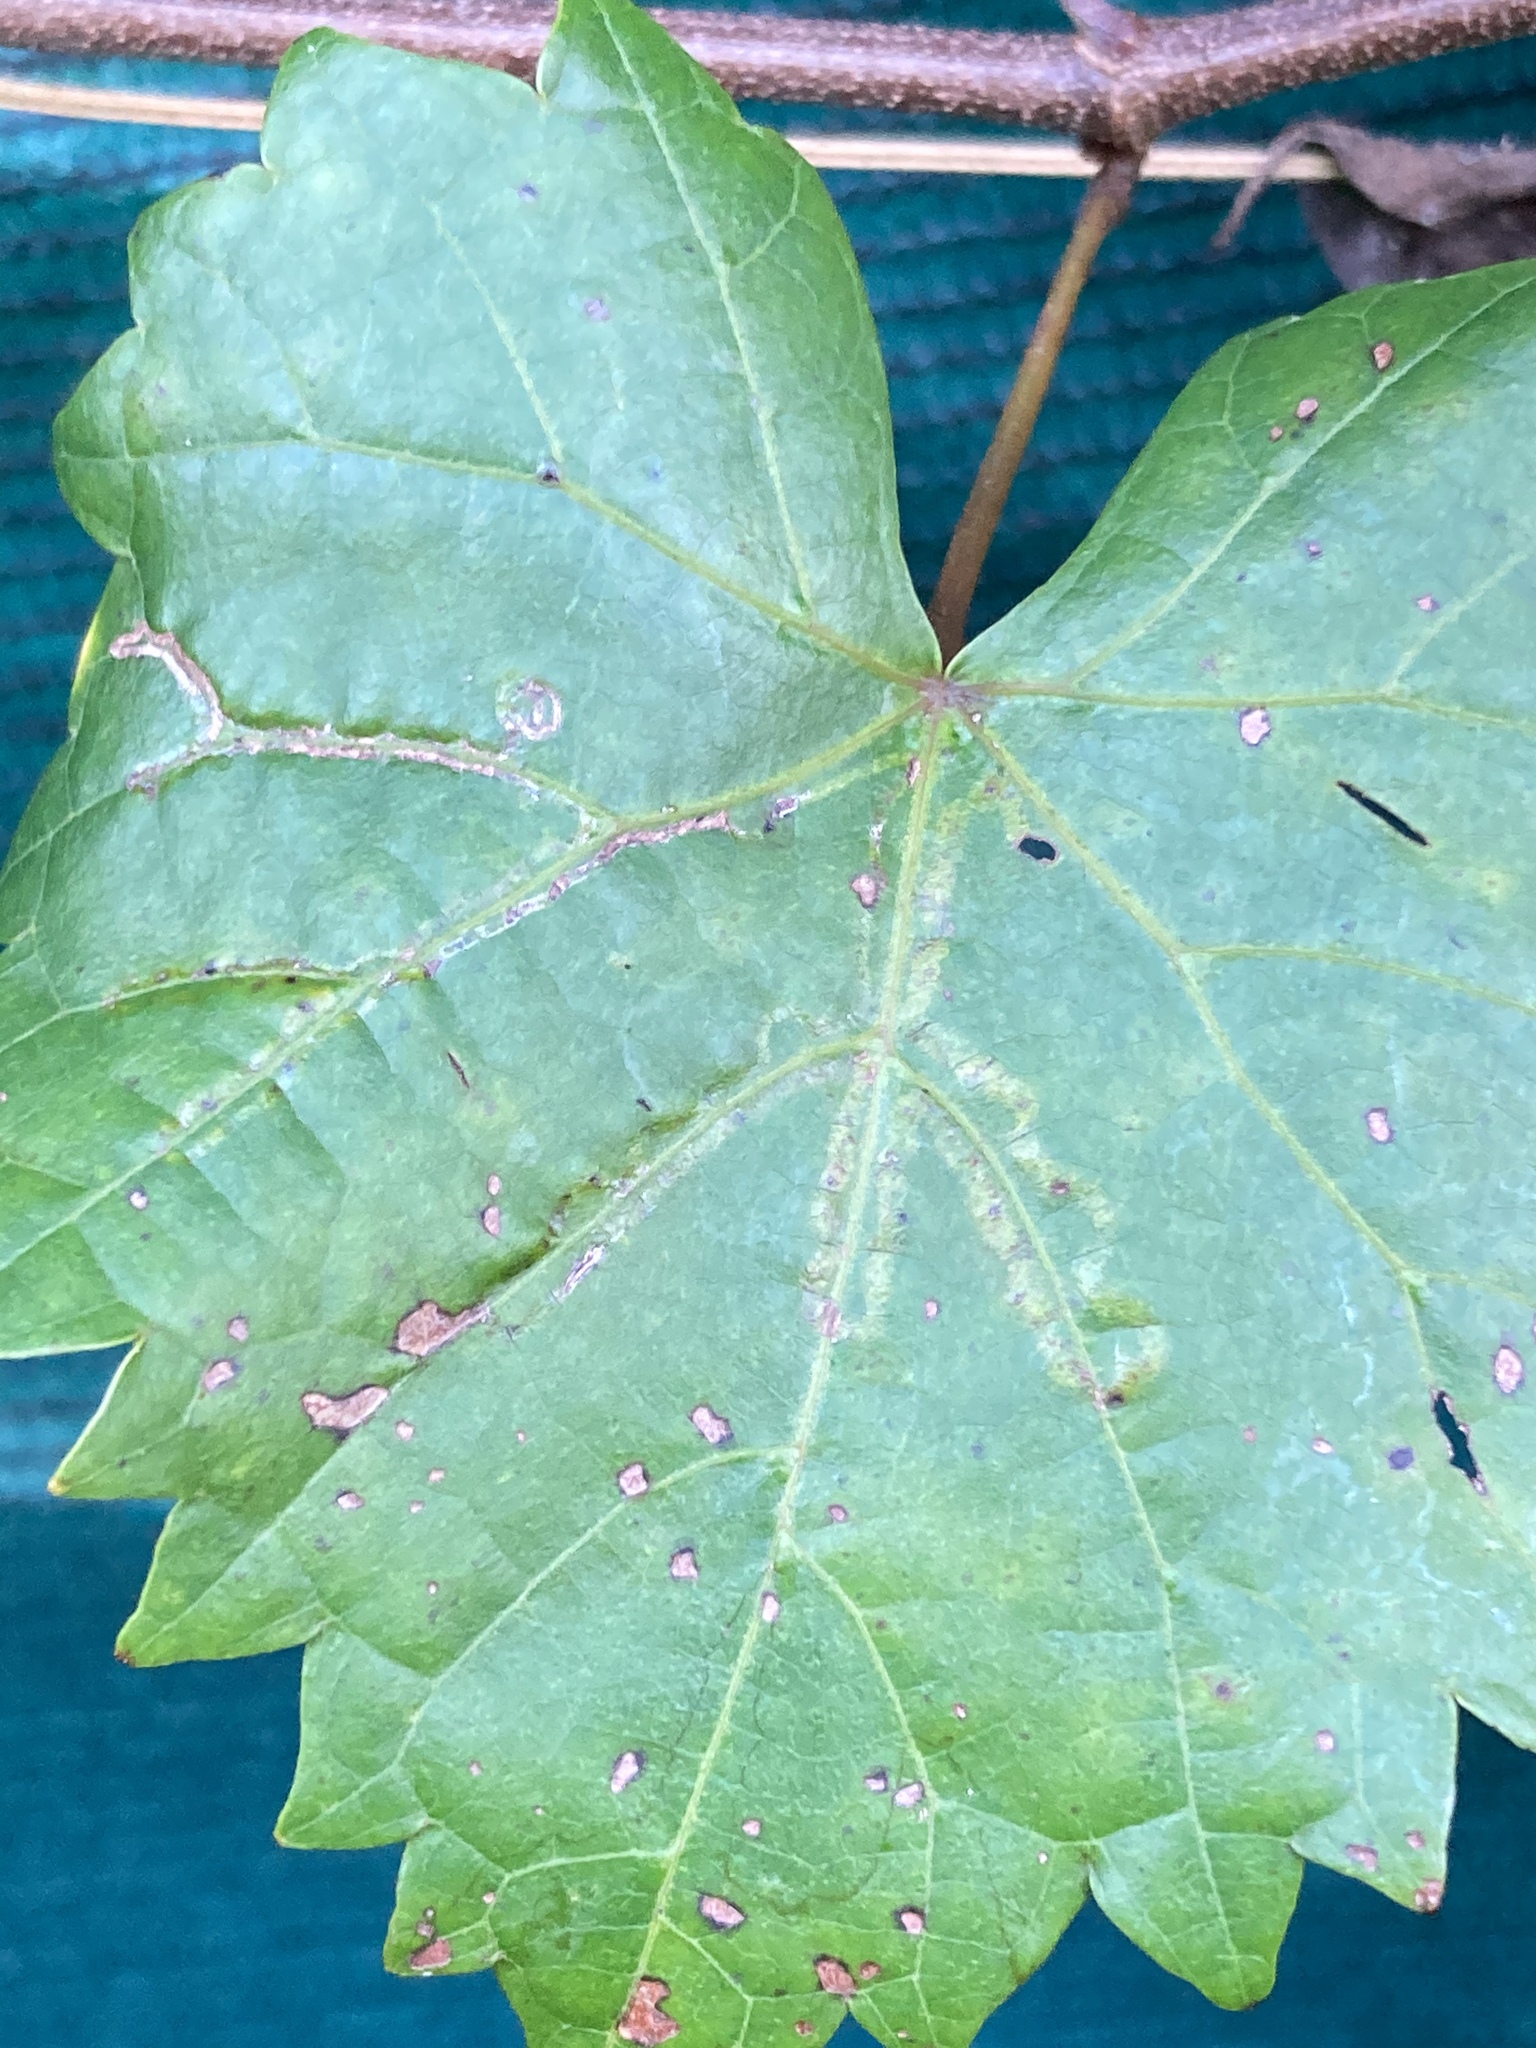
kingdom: Animalia
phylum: Arthropoda
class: Insecta
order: Lepidoptera
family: Gracillariidae
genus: Phyllocnistis
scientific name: Phyllocnistis vitegenella
